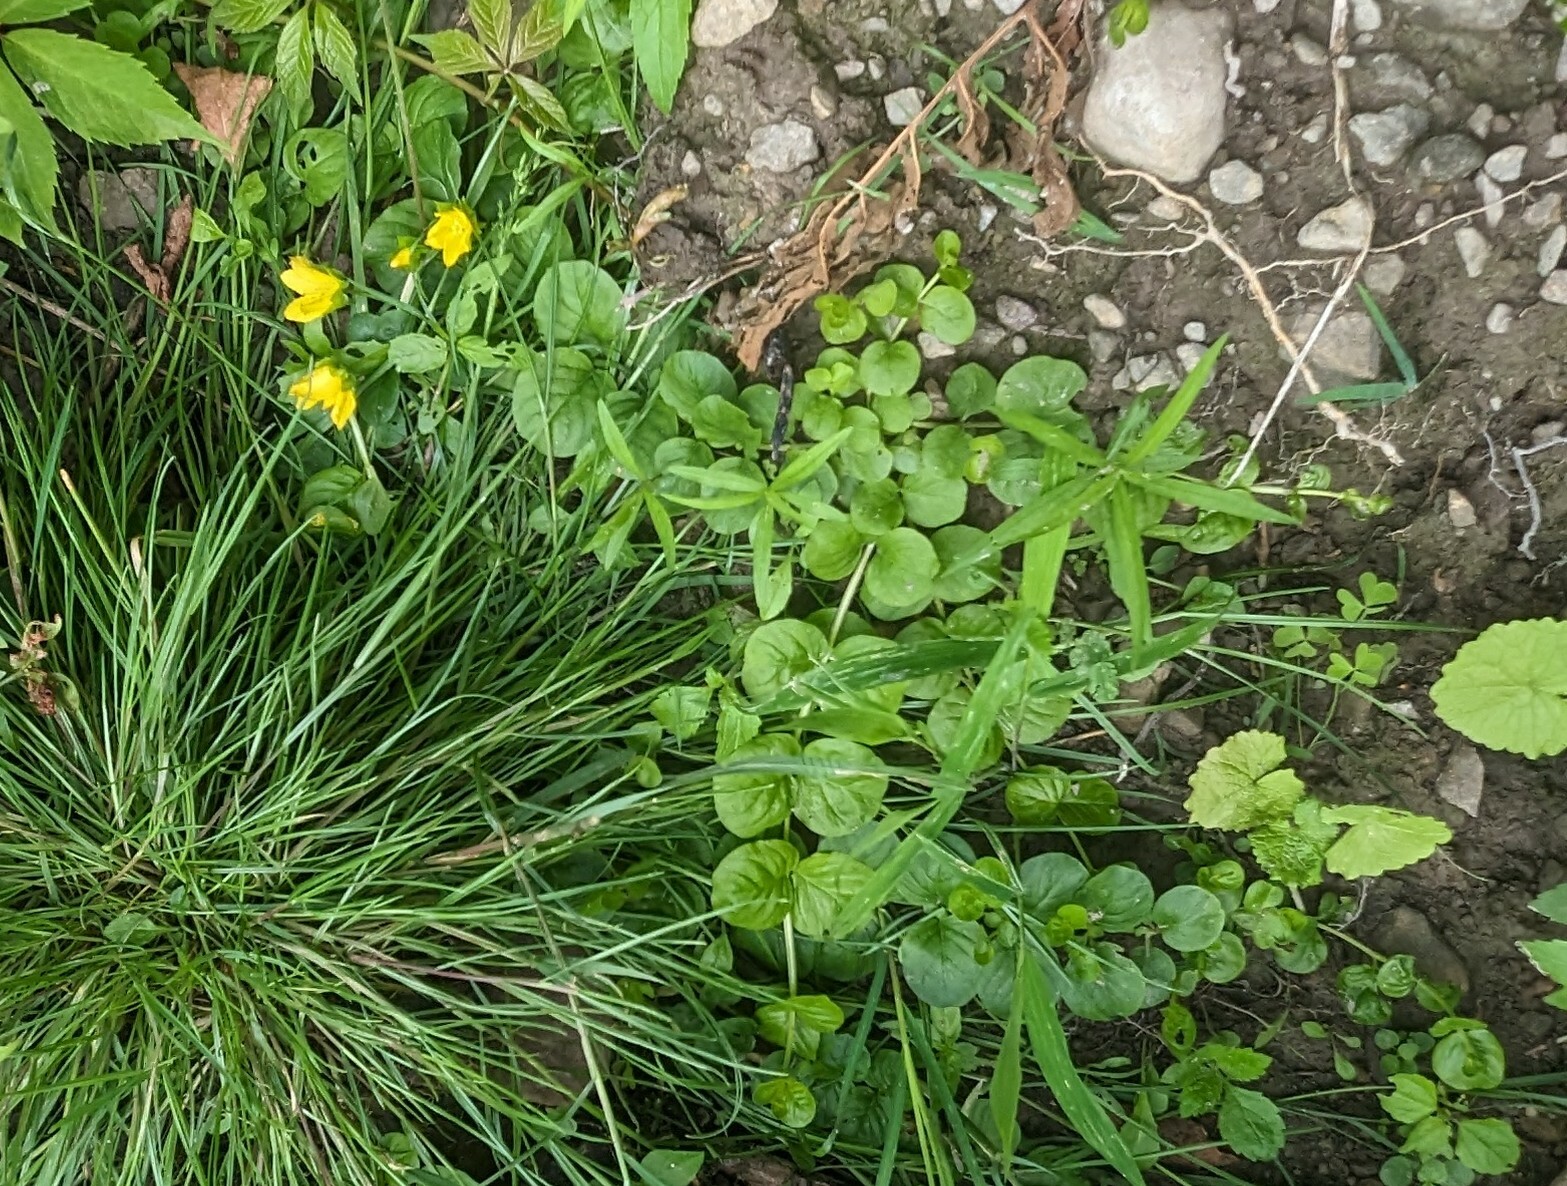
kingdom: Plantae
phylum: Tracheophyta
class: Magnoliopsida
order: Ericales
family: Primulaceae
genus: Lysimachia
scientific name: Lysimachia nummularia
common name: Moneywort
